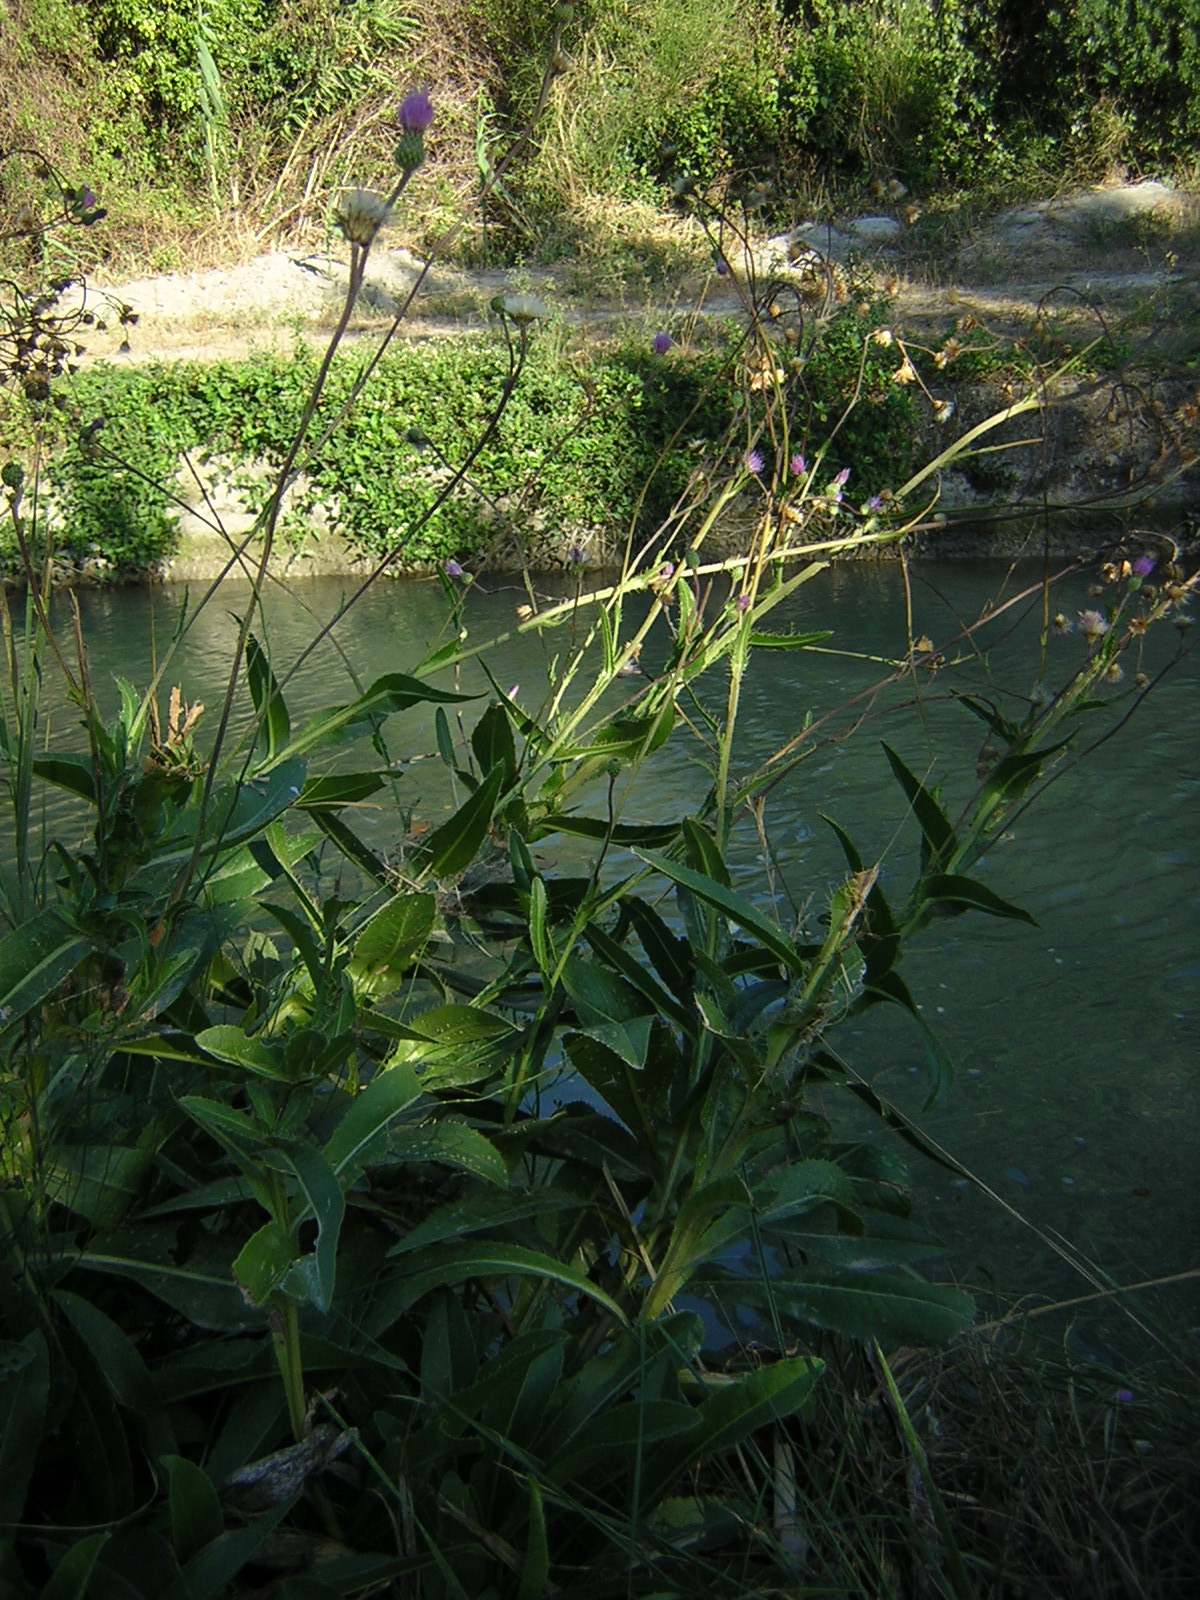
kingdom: Plantae
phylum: Tracheophyta
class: Magnoliopsida
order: Asterales
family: Asteraceae
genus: Cirsium
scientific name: Cirsium monspessulanum
